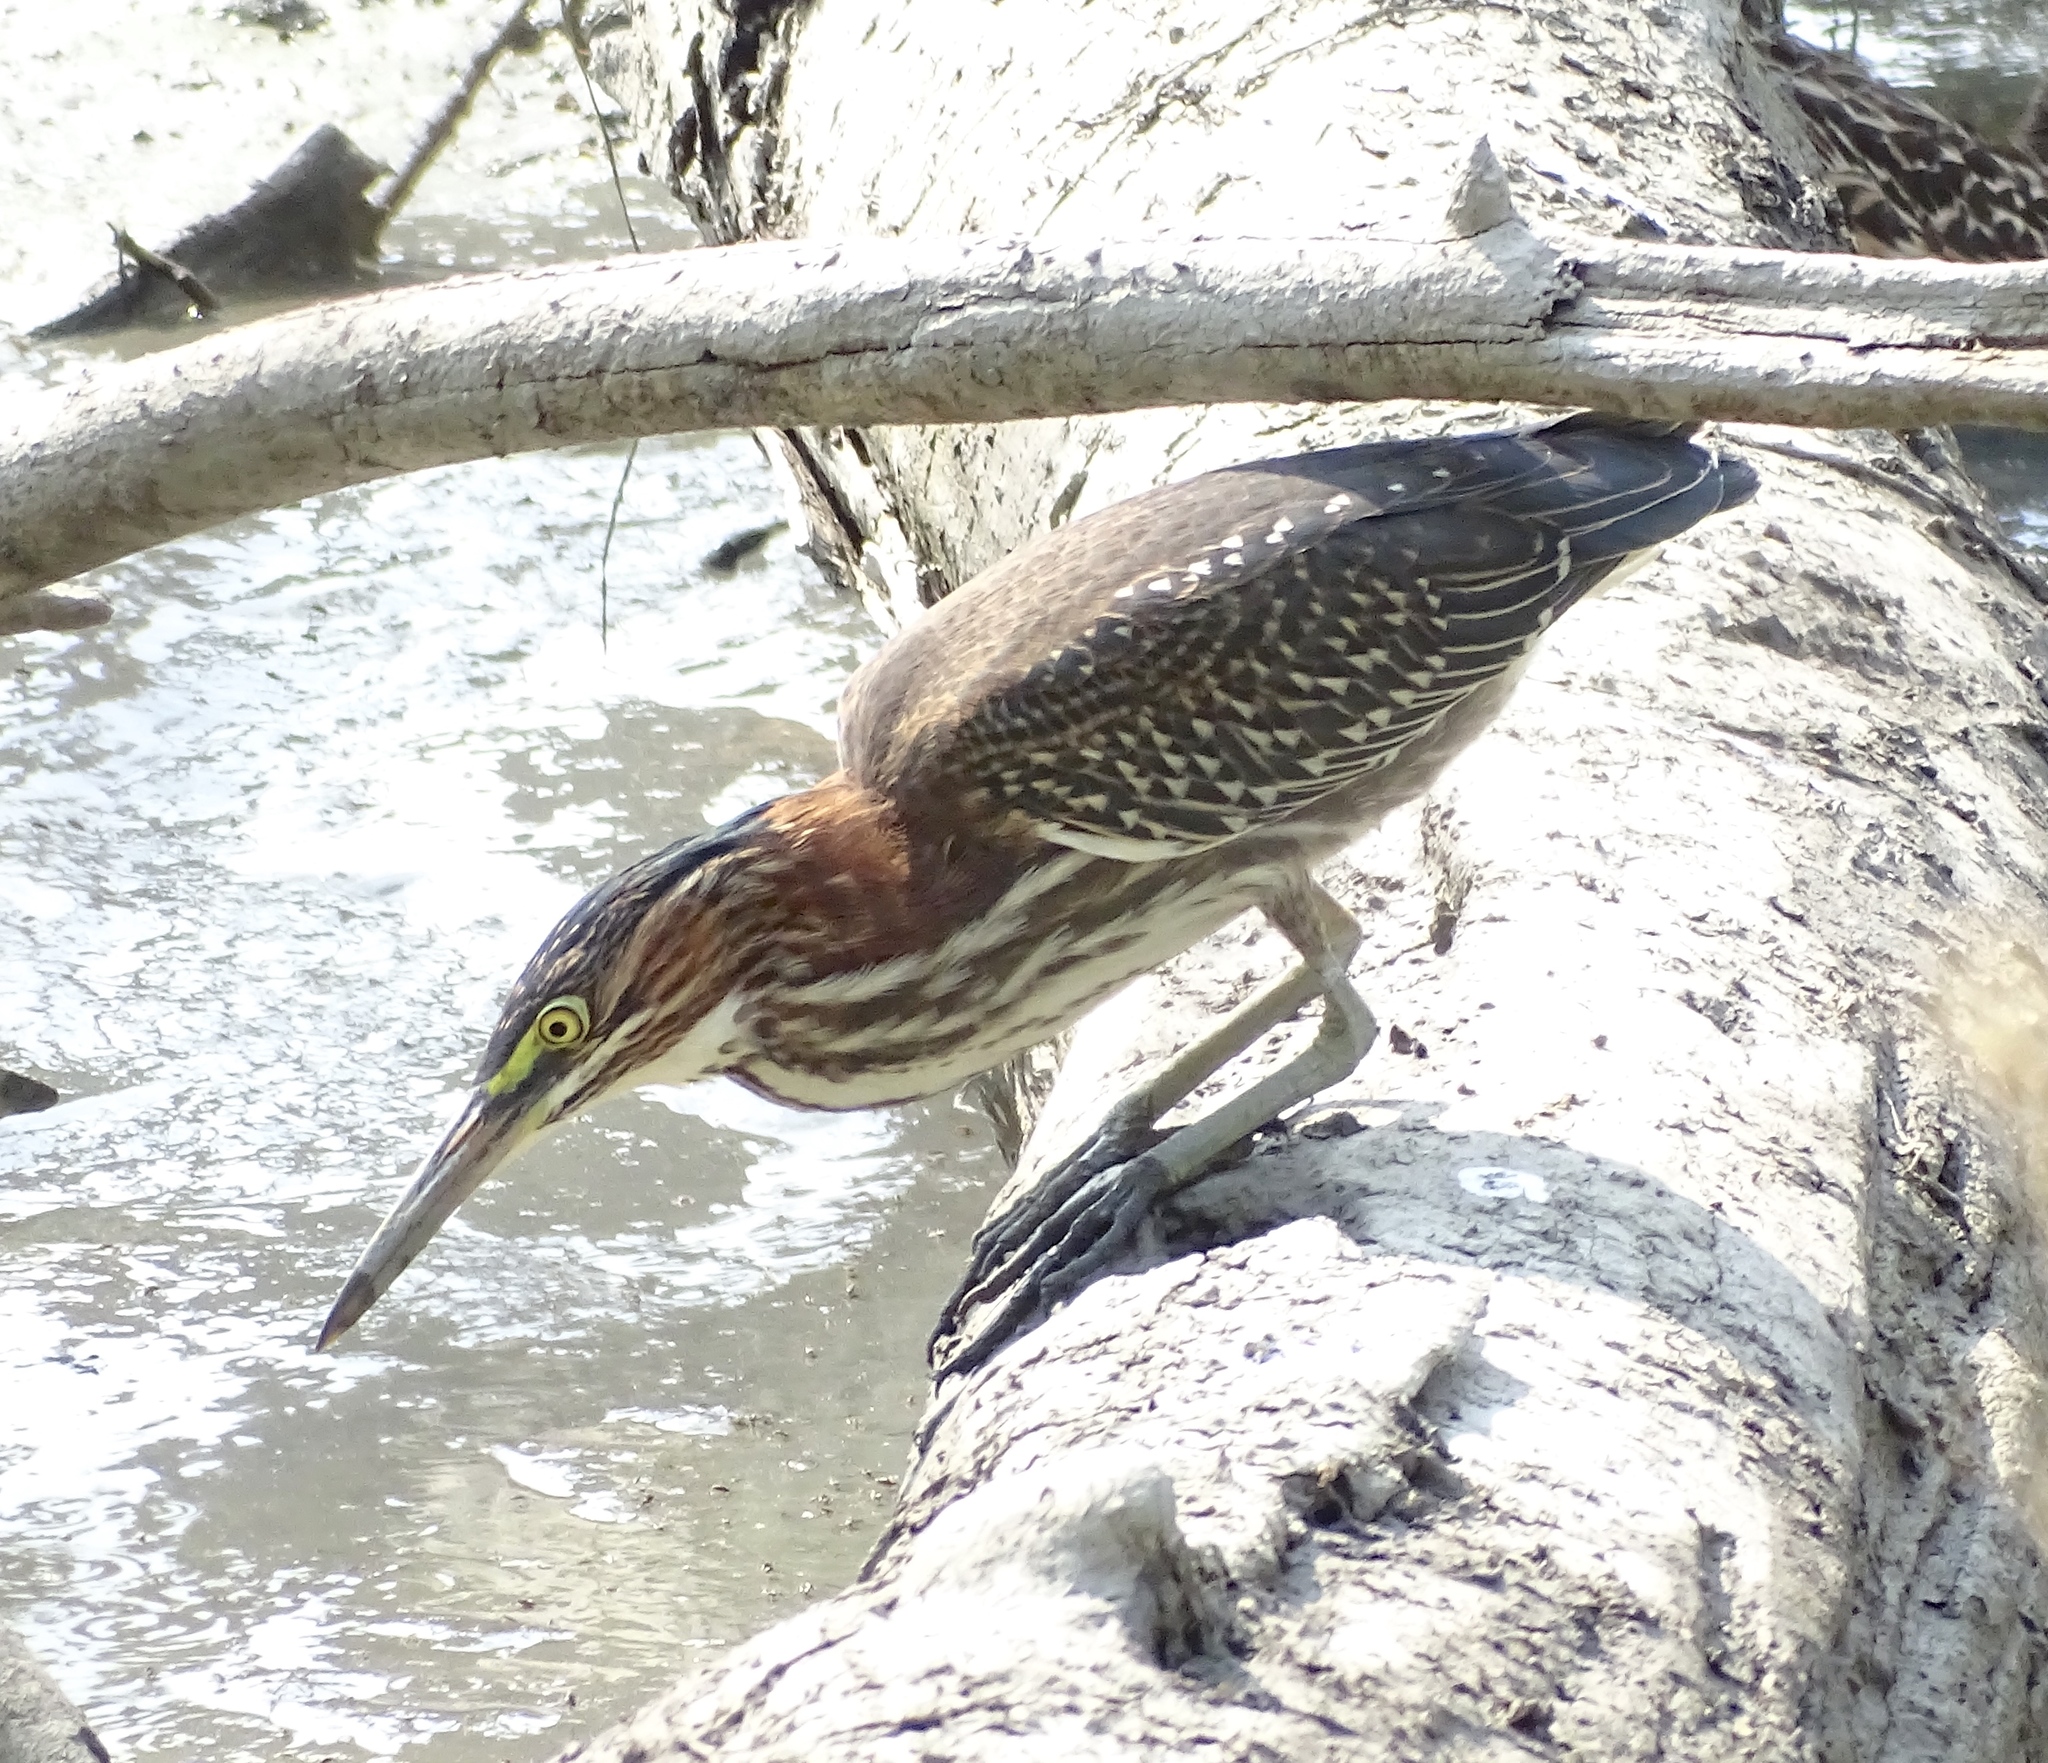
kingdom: Animalia
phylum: Chordata
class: Aves
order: Pelecaniformes
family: Ardeidae
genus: Butorides
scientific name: Butorides virescens
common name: Green heron
